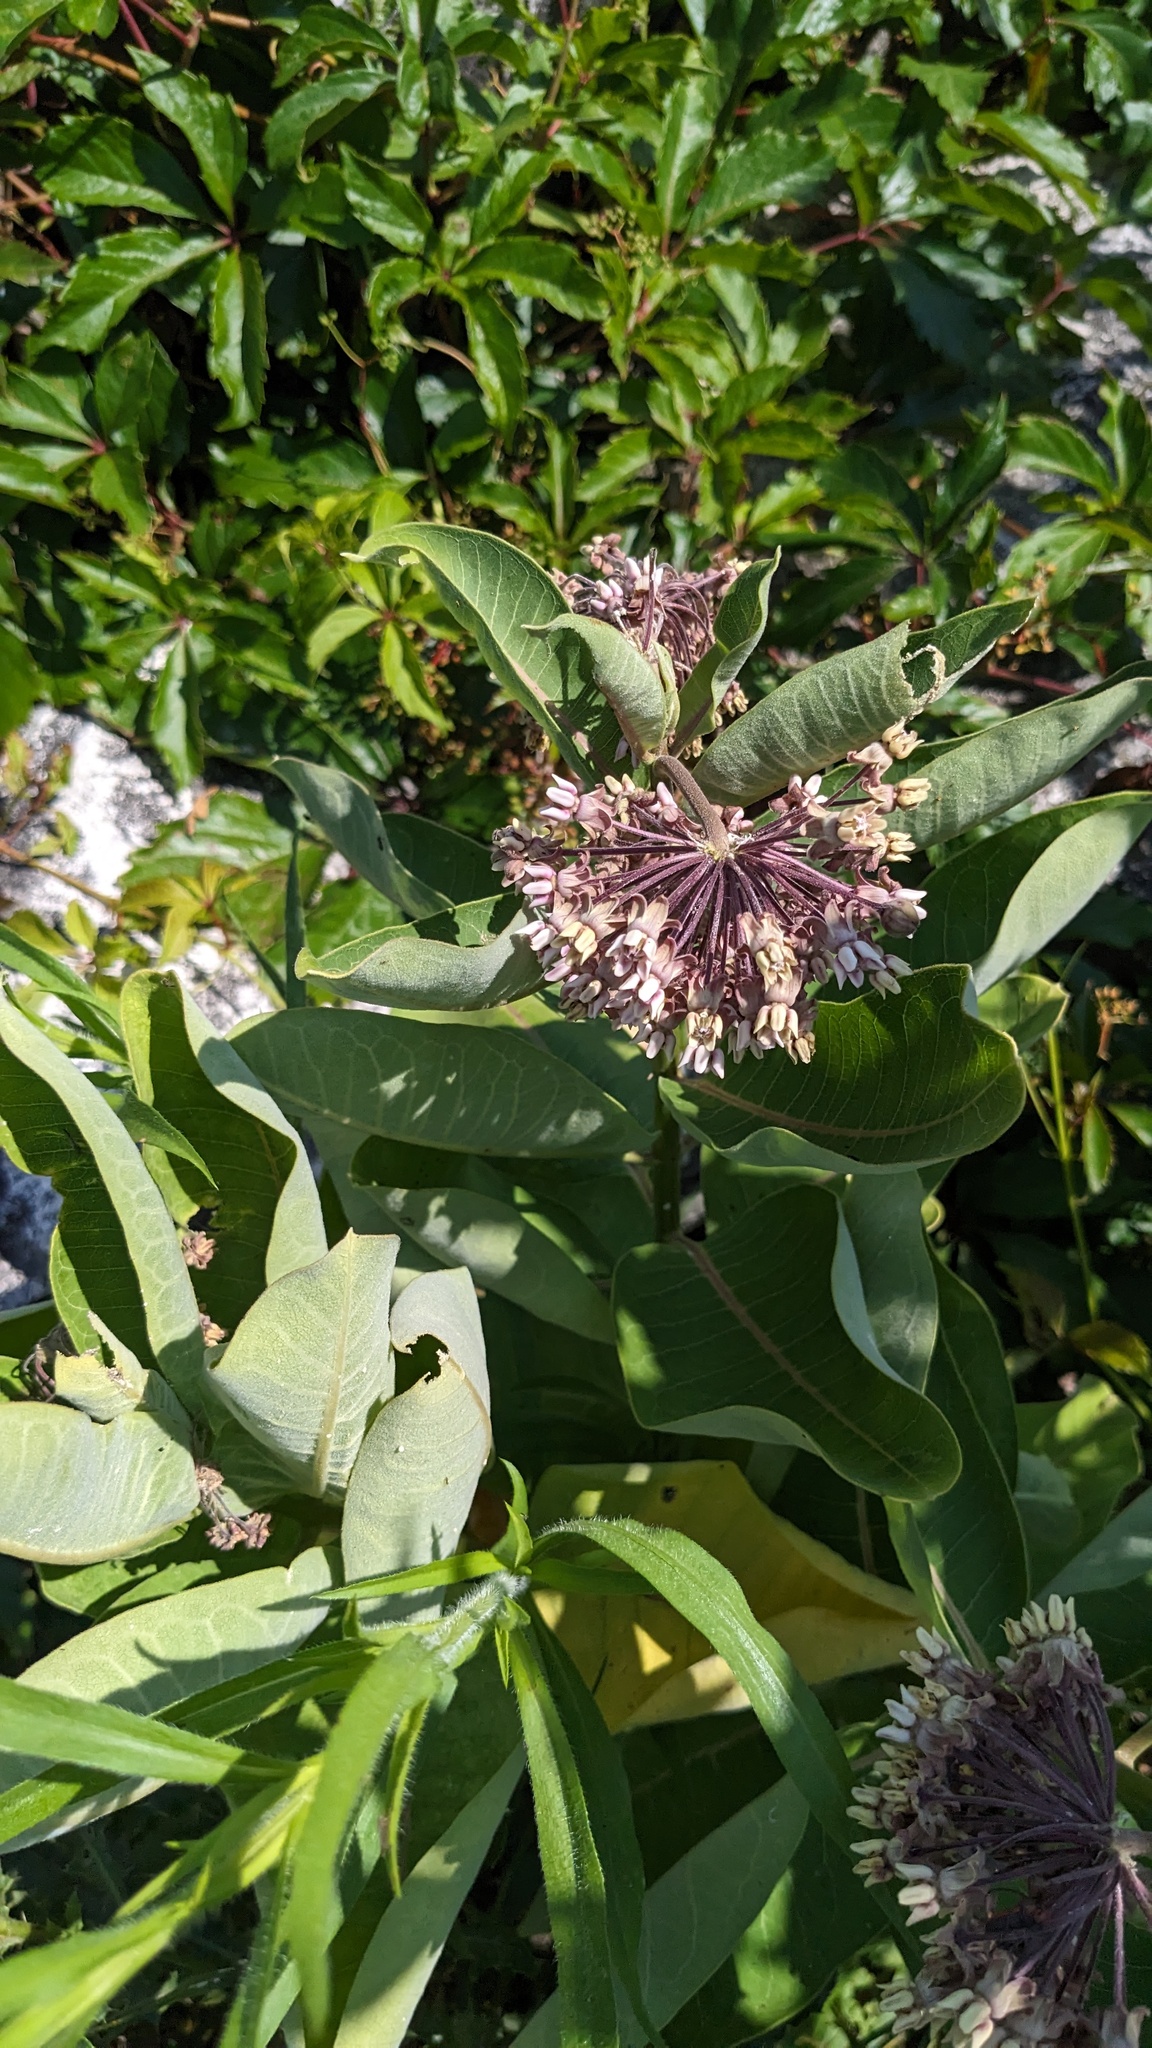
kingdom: Plantae
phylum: Tracheophyta
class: Magnoliopsida
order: Gentianales
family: Apocynaceae
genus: Asclepias
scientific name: Asclepias syriaca
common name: Common milkweed
